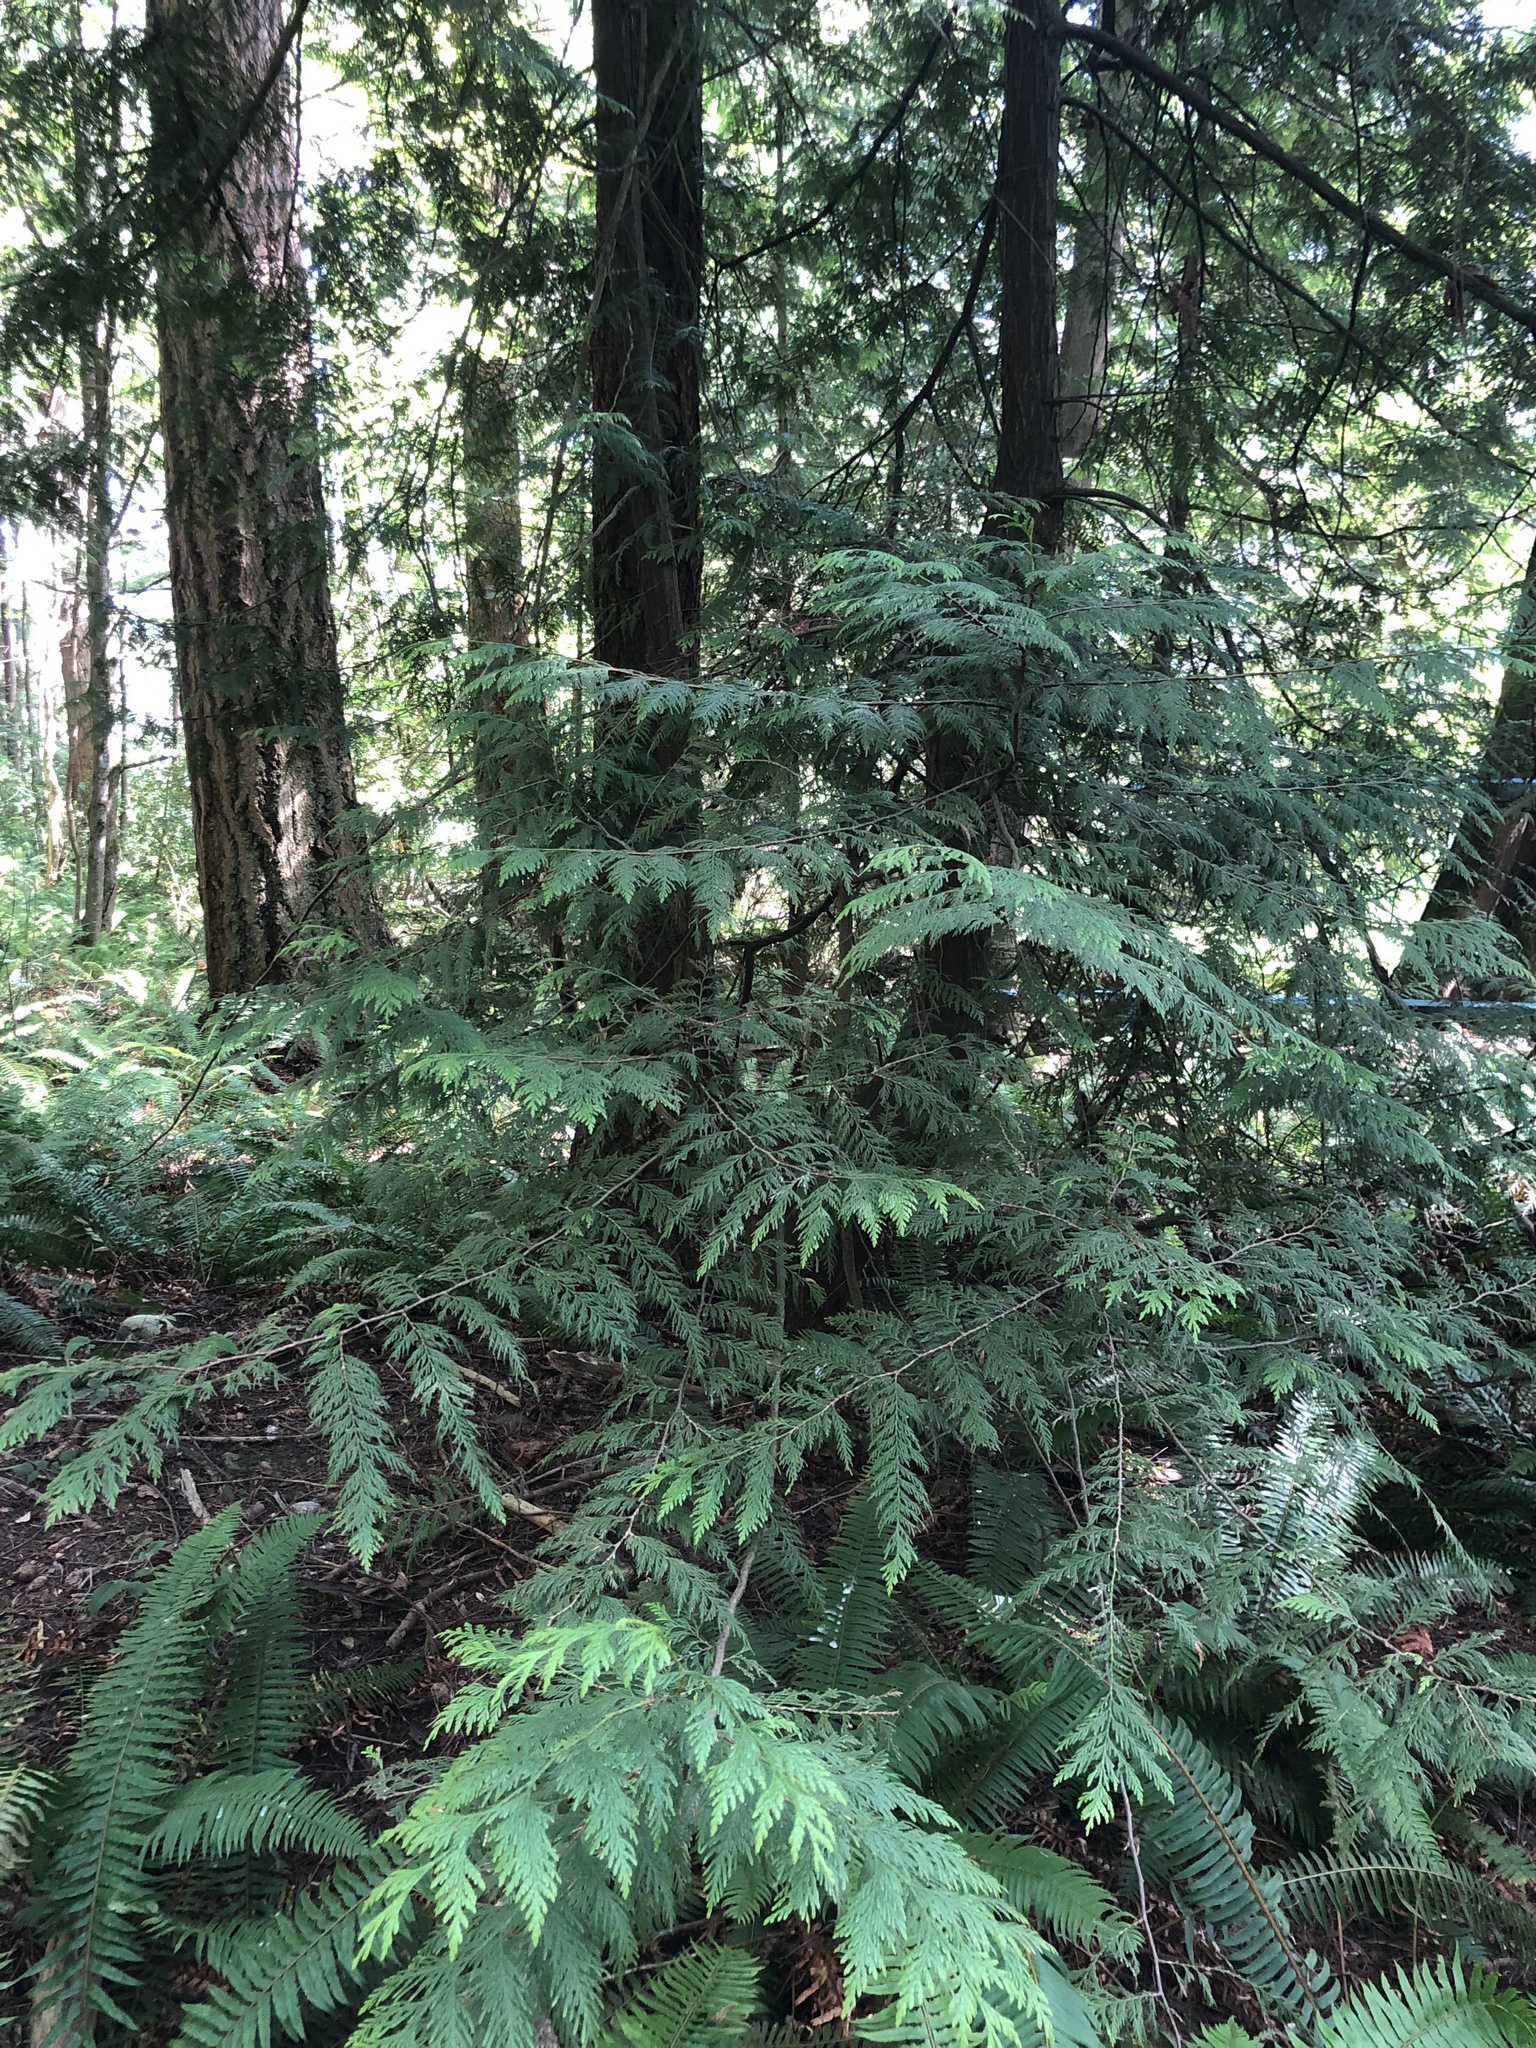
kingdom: Plantae
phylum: Tracheophyta
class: Pinopsida
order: Pinales
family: Cupressaceae
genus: Thuja
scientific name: Thuja plicata
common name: Western red-cedar
